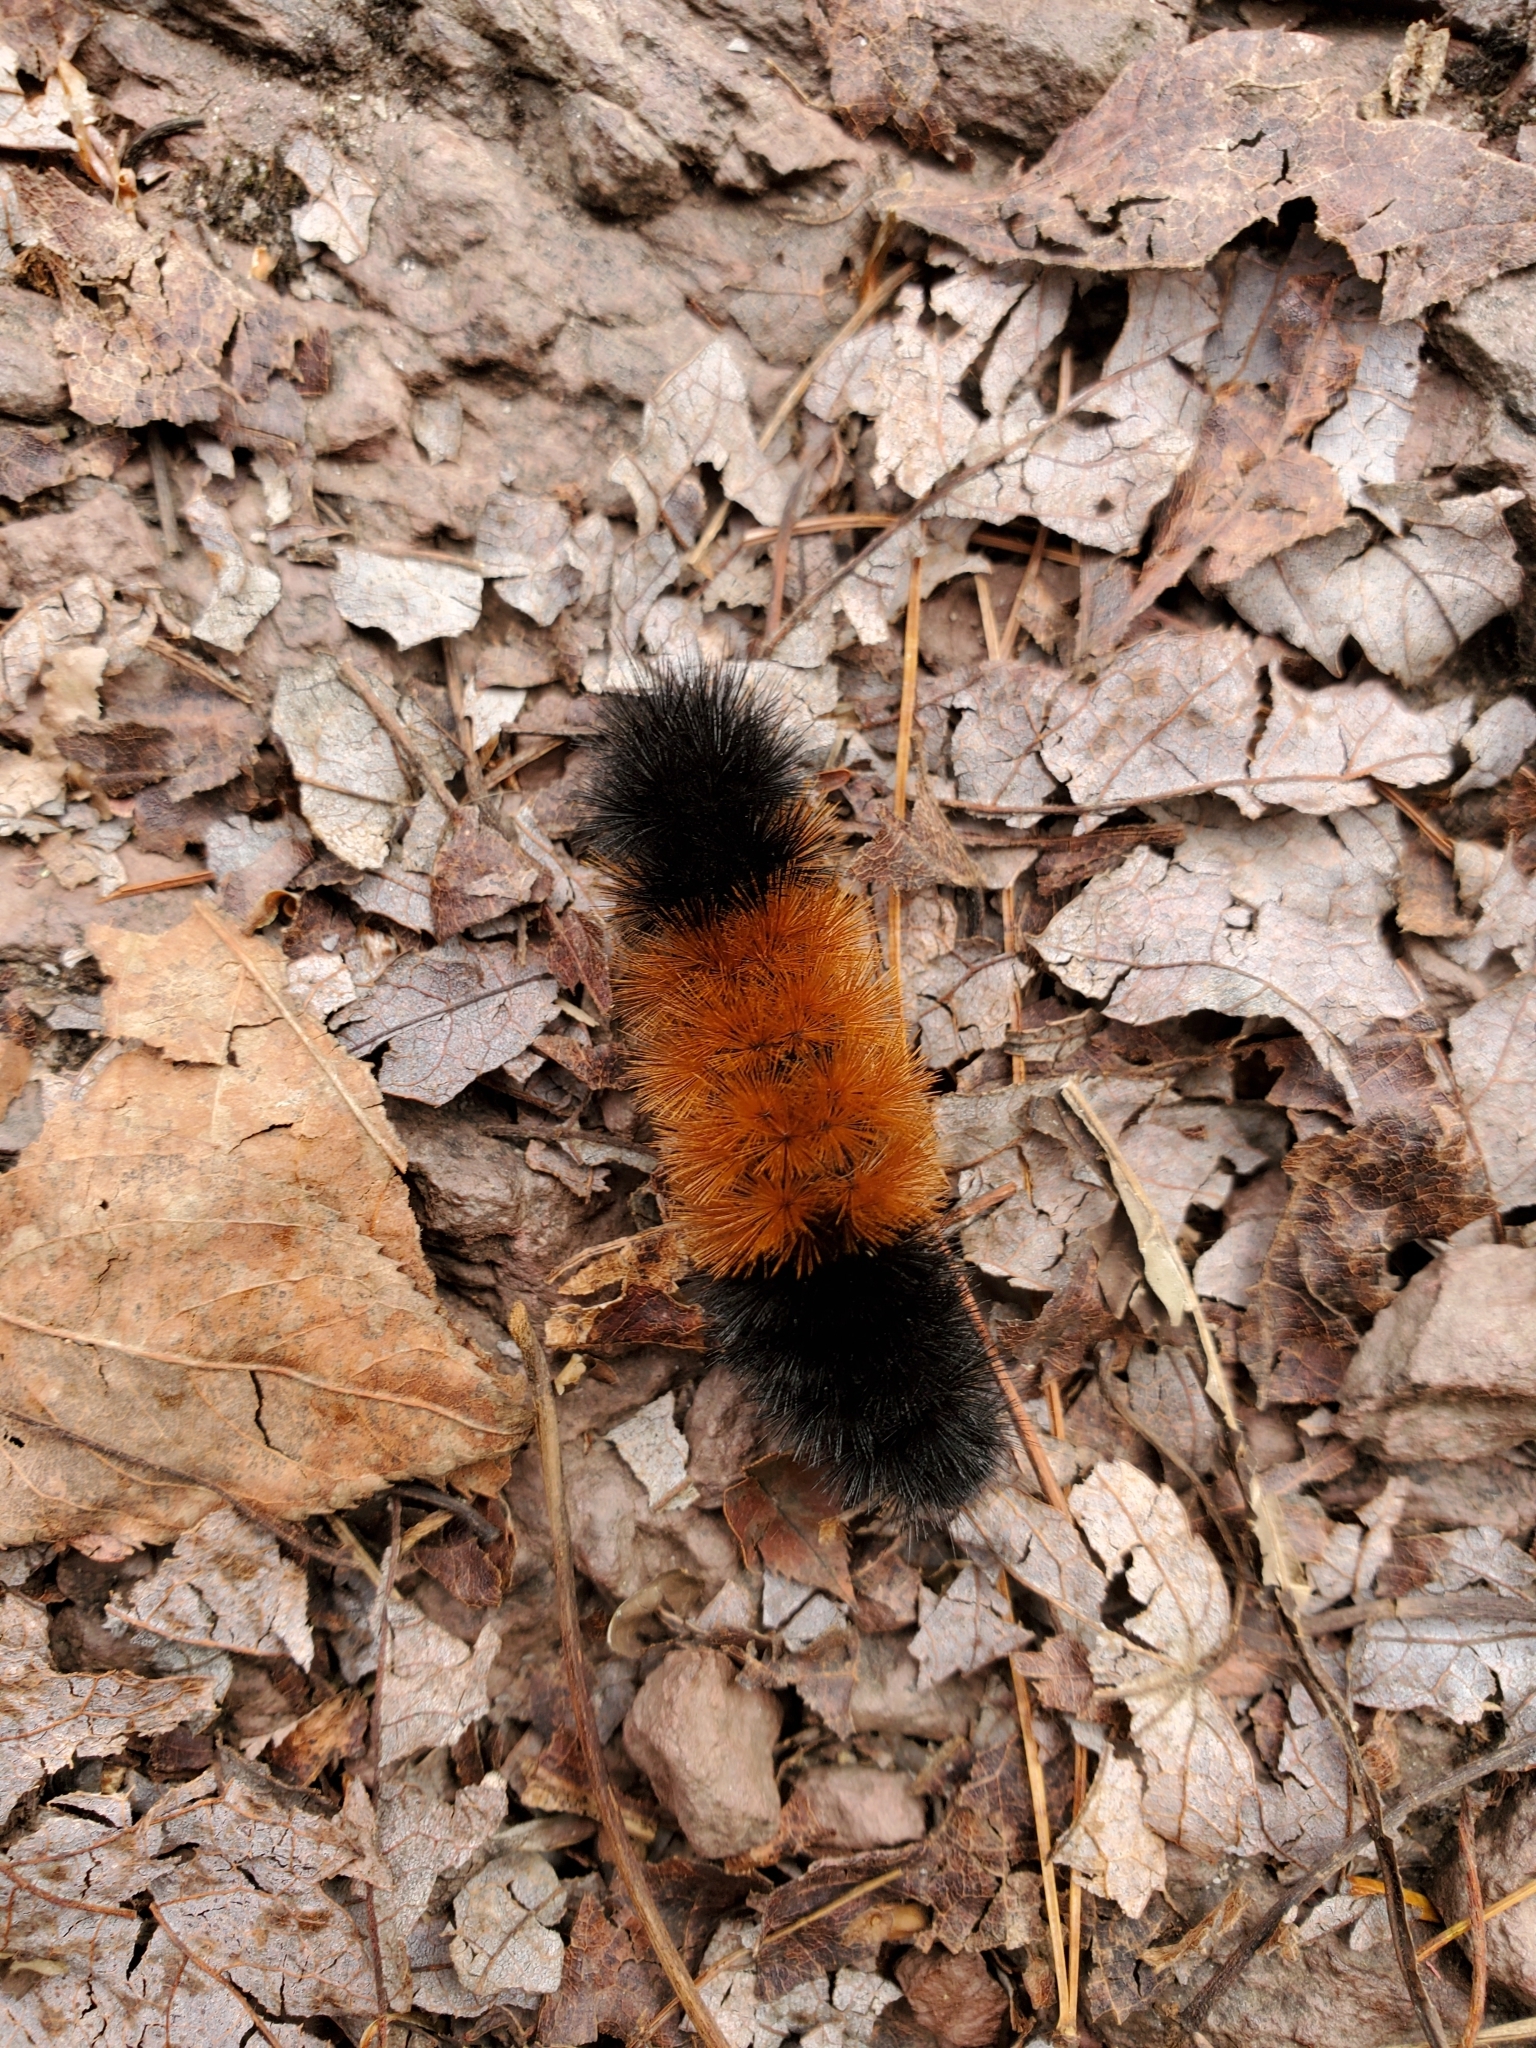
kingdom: Animalia
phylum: Arthropoda
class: Insecta
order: Lepidoptera
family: Erebidae
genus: Pyrrharctia
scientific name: Pyrrharctia isabella
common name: Isabella tiger moth
